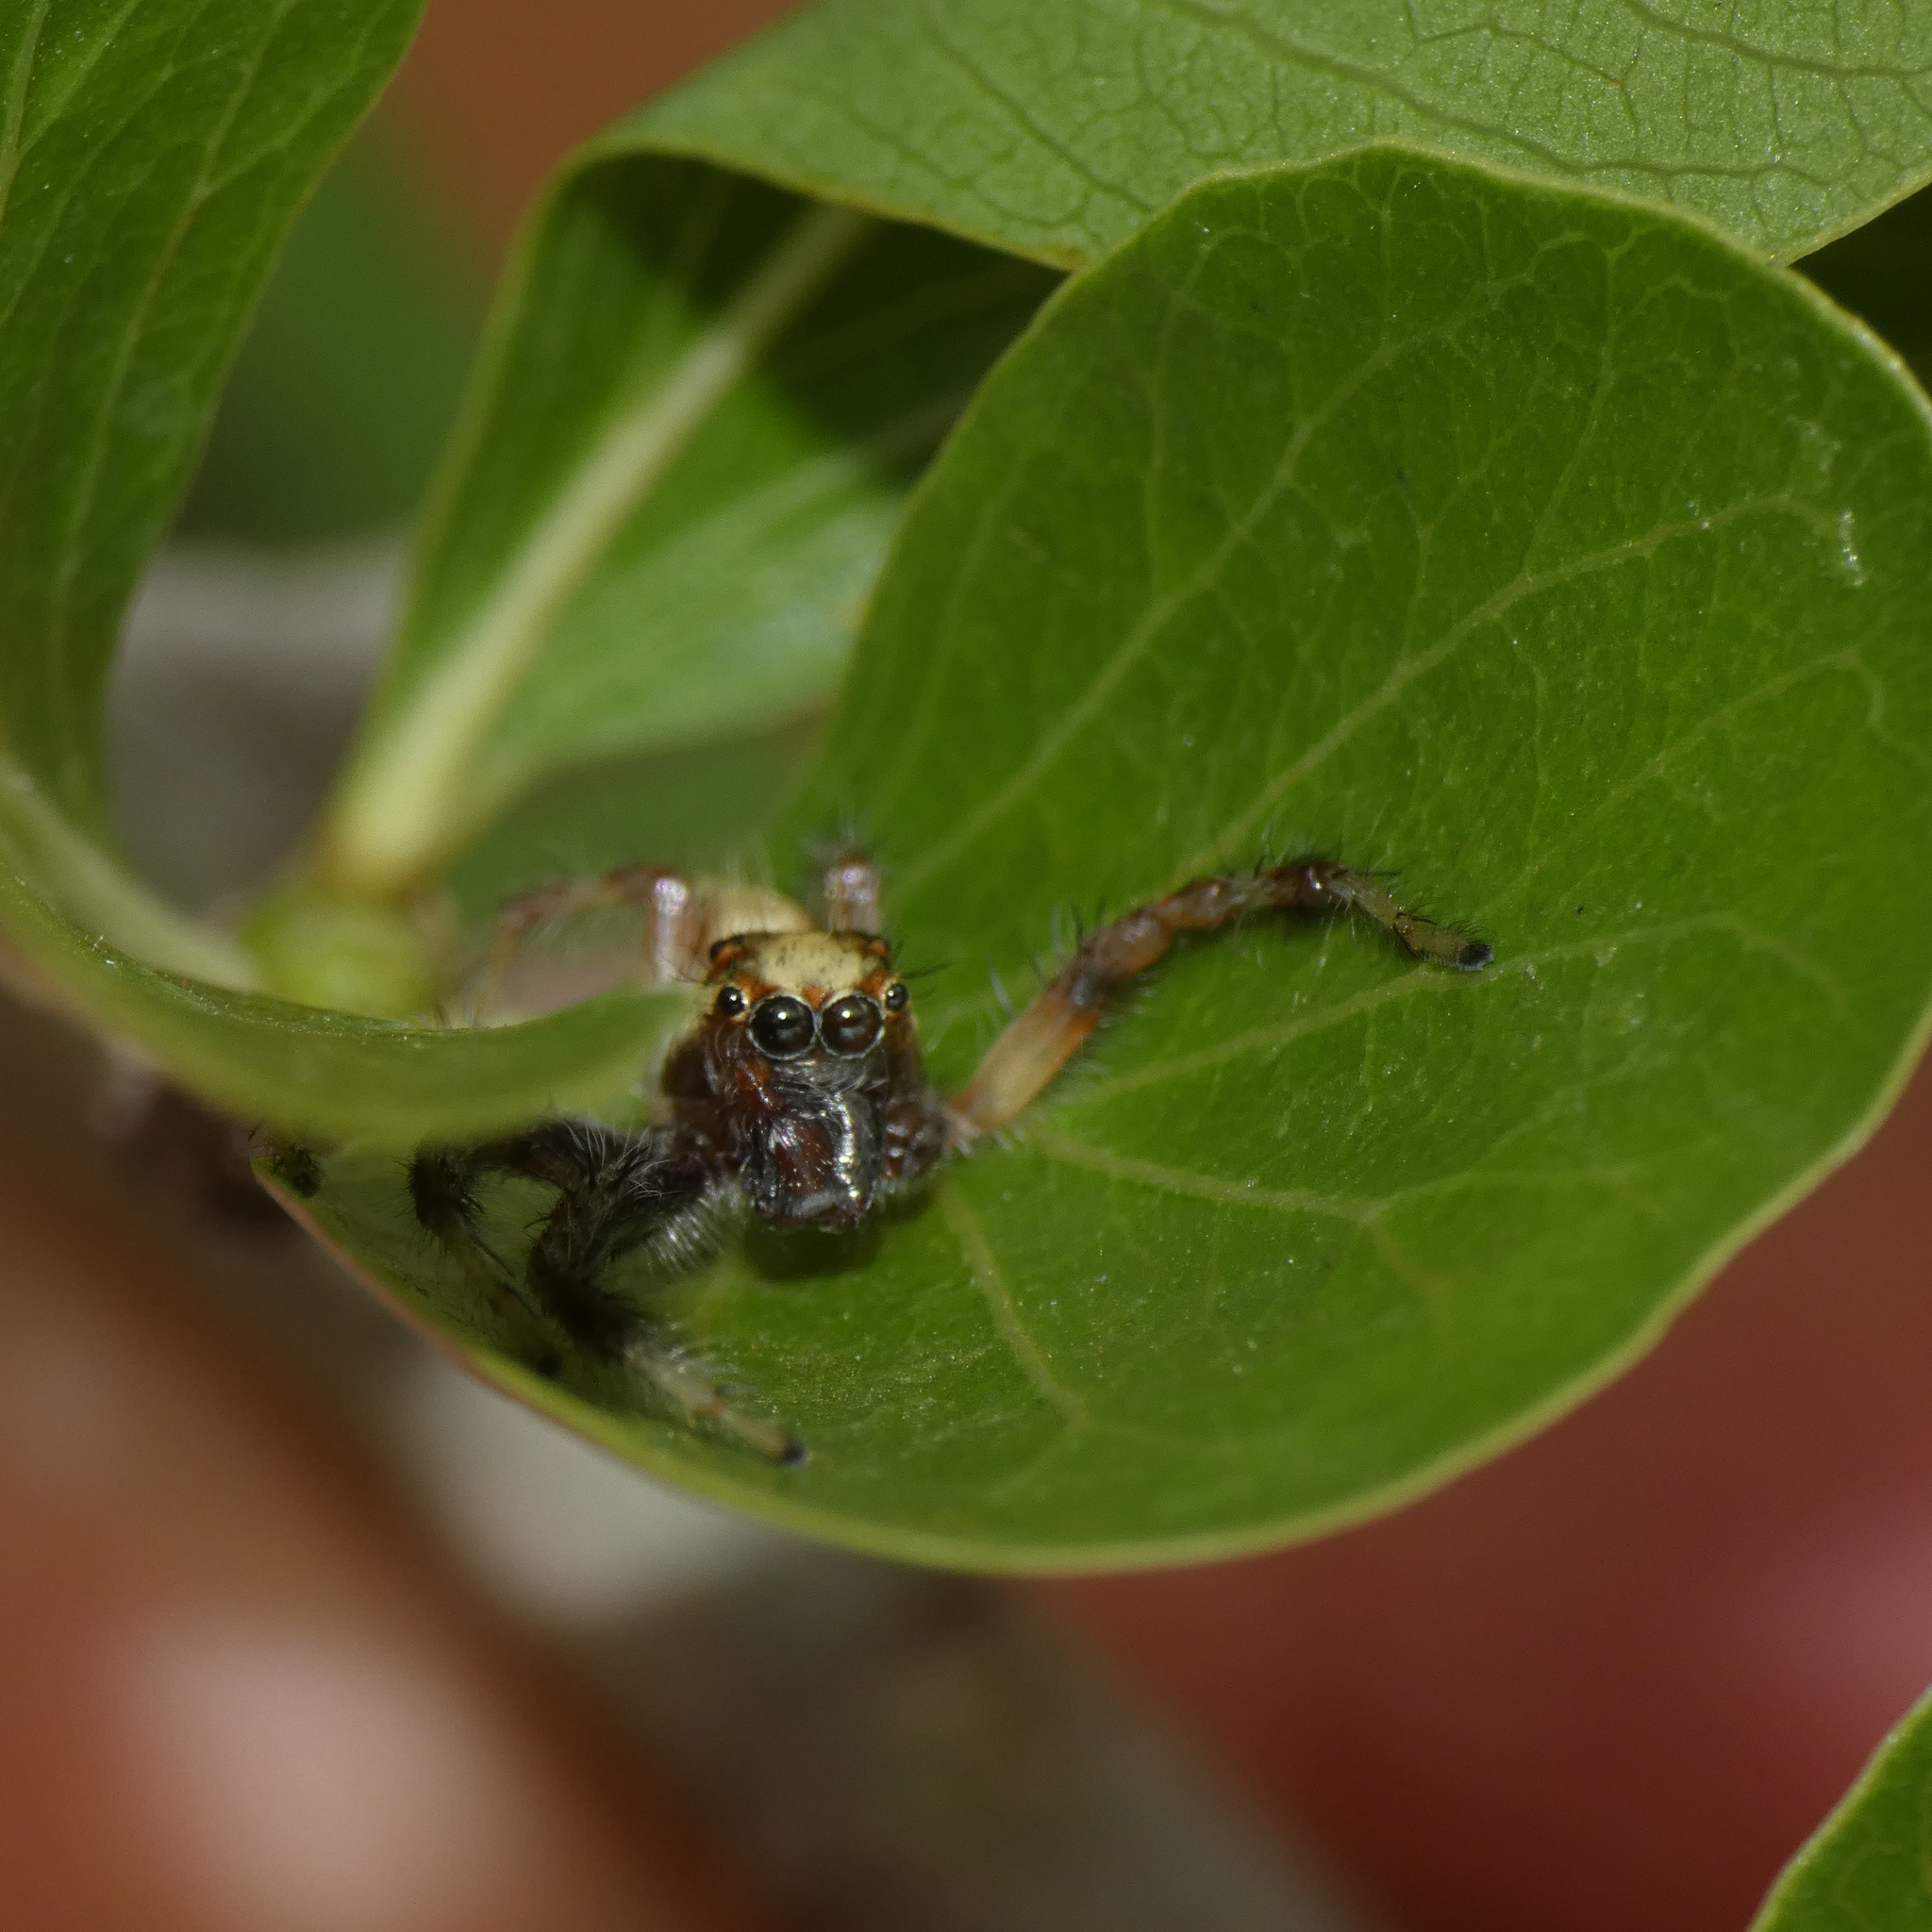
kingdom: Animalia
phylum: Arthropoda
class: Arachnida
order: Araneae
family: Salticidae
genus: Brancus
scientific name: Brancus mustelus
